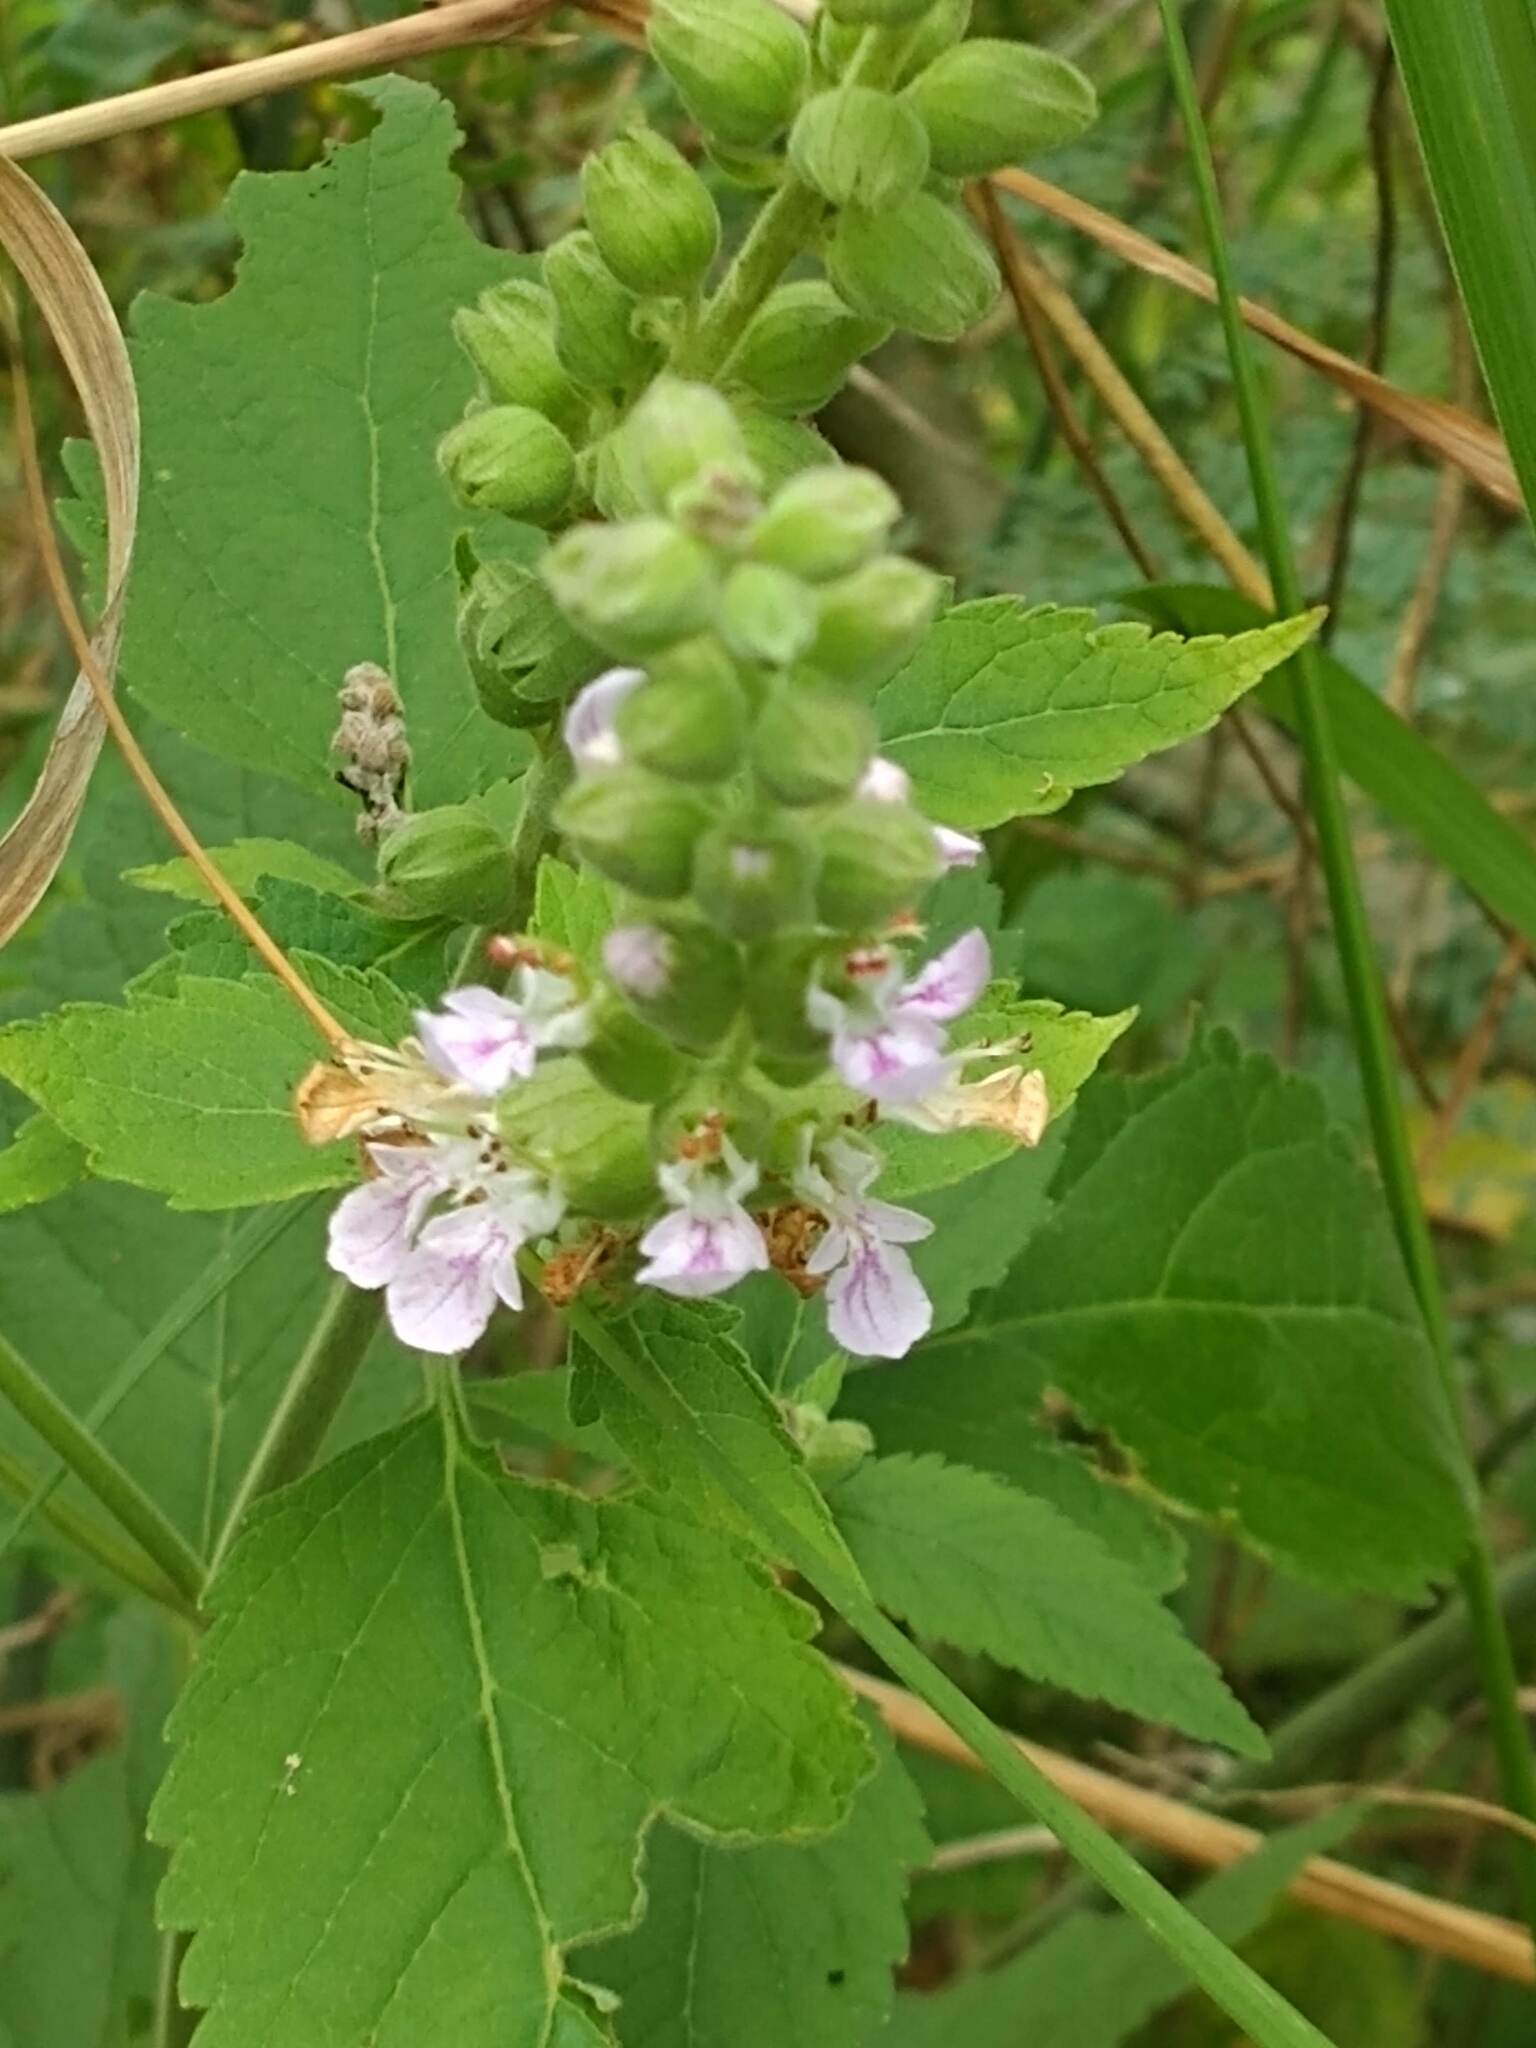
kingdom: Plantae
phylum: Tracheophyta
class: Magnoliopsida
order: Lamiales
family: Lamiaceae
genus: Teucrium
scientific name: Teucrium vesicarium
